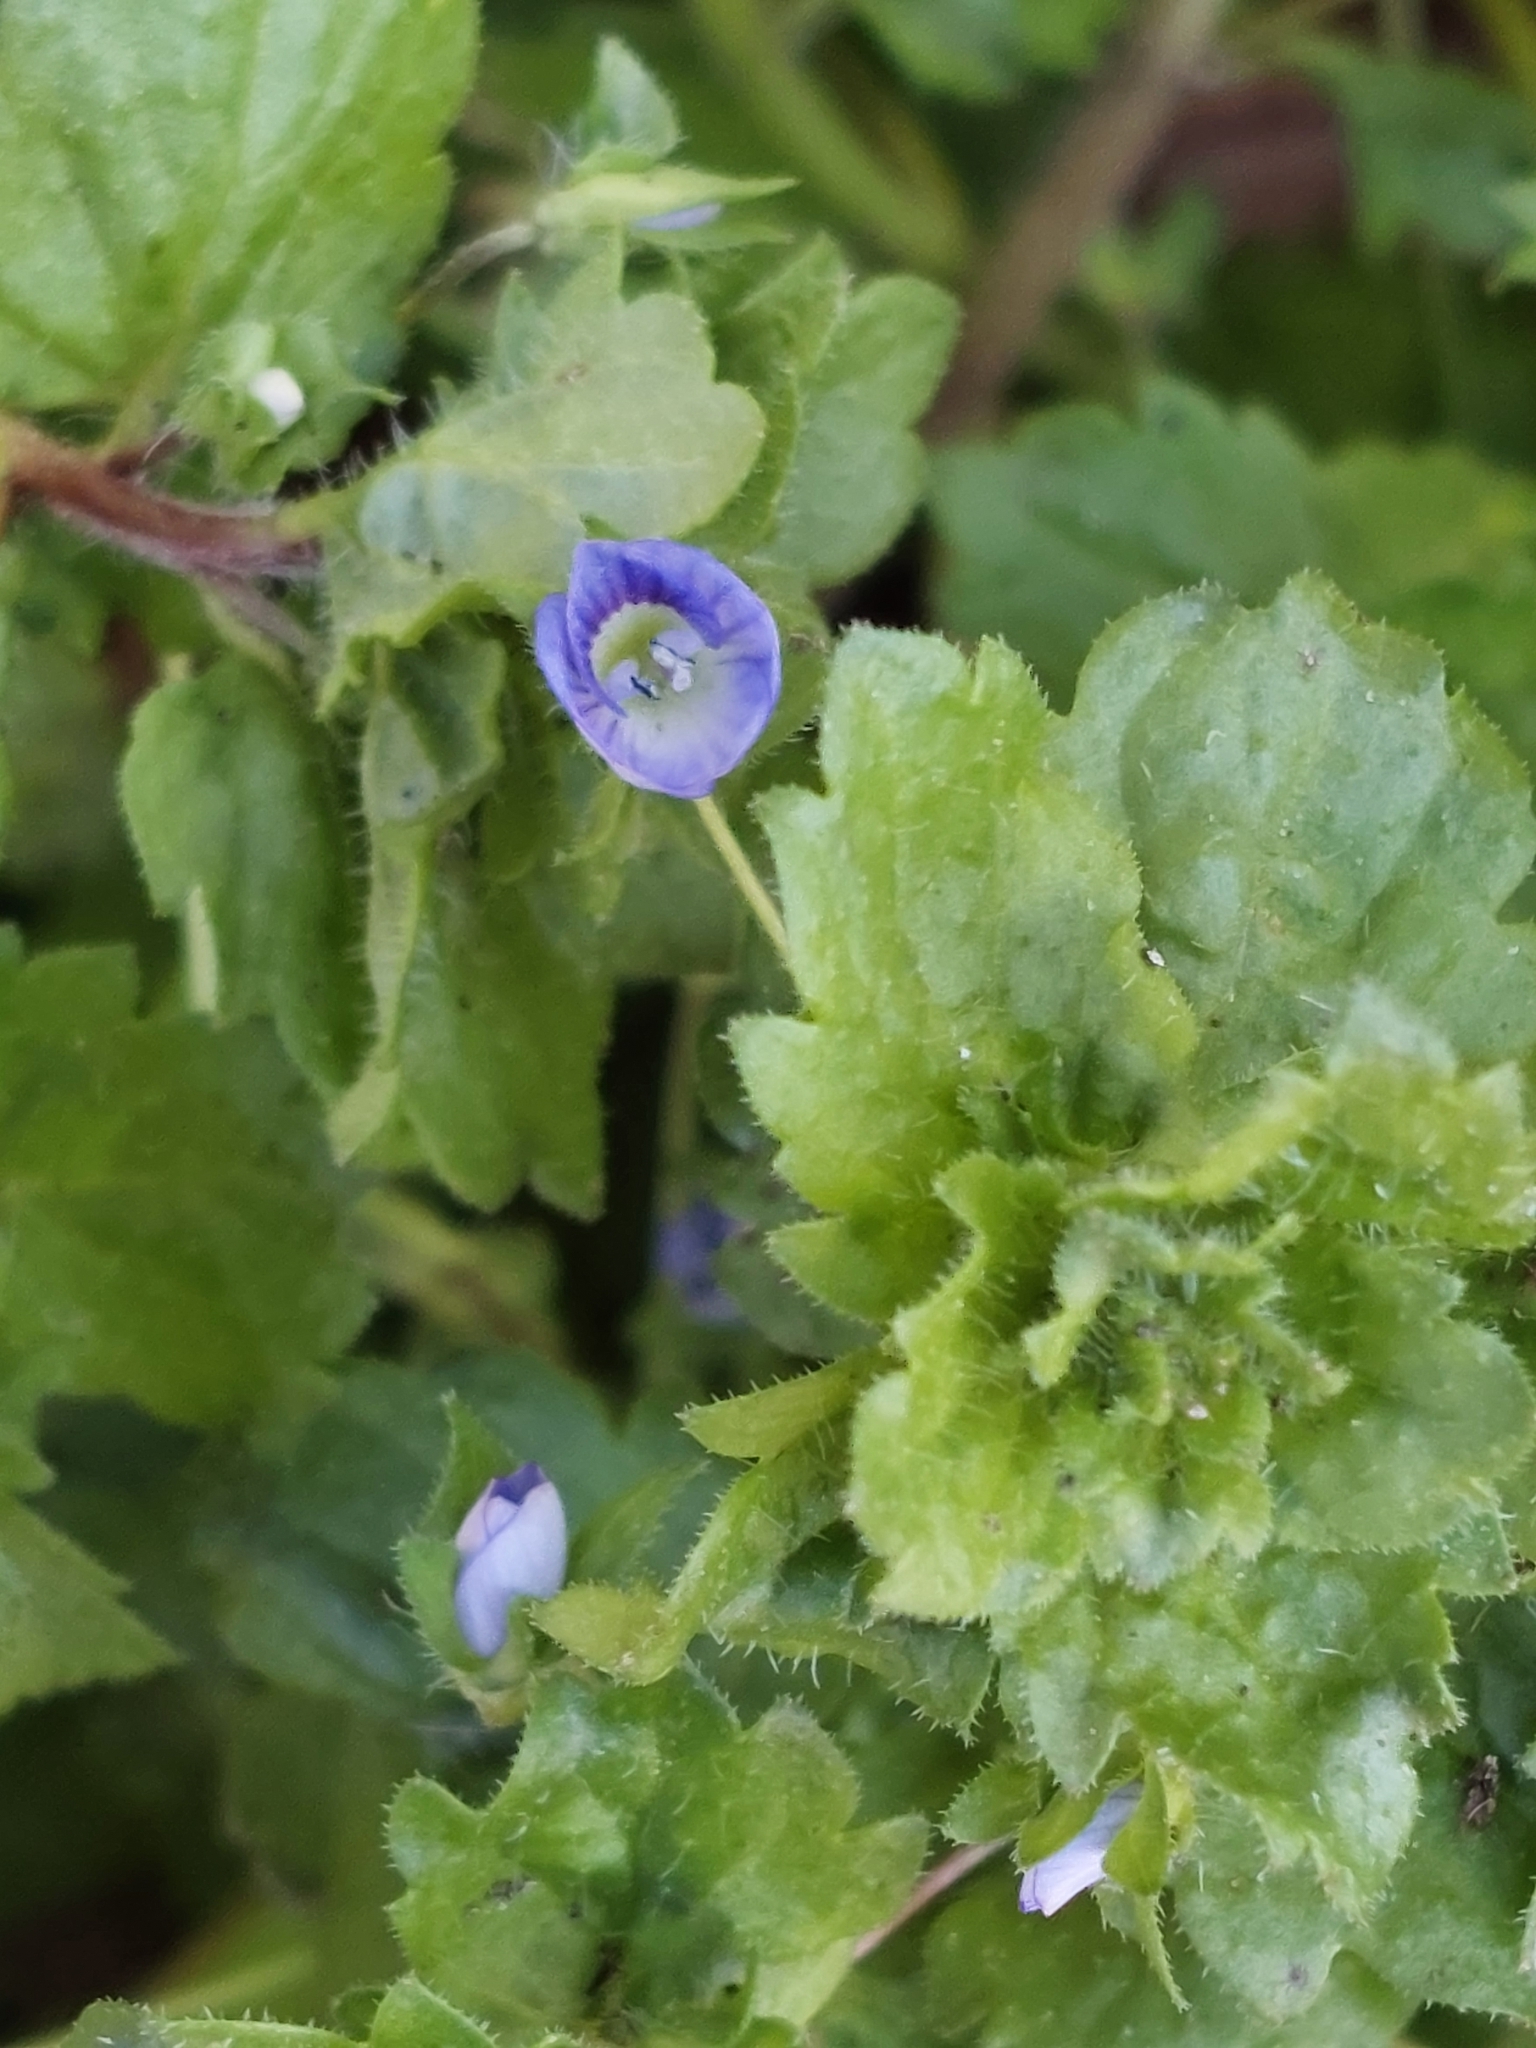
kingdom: Plantae
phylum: Tracheophyta
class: Magnoliopsida
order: Lamiales
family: Plantaginaceae
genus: Veronica
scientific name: Veronica persica
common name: Common field-speedwell
